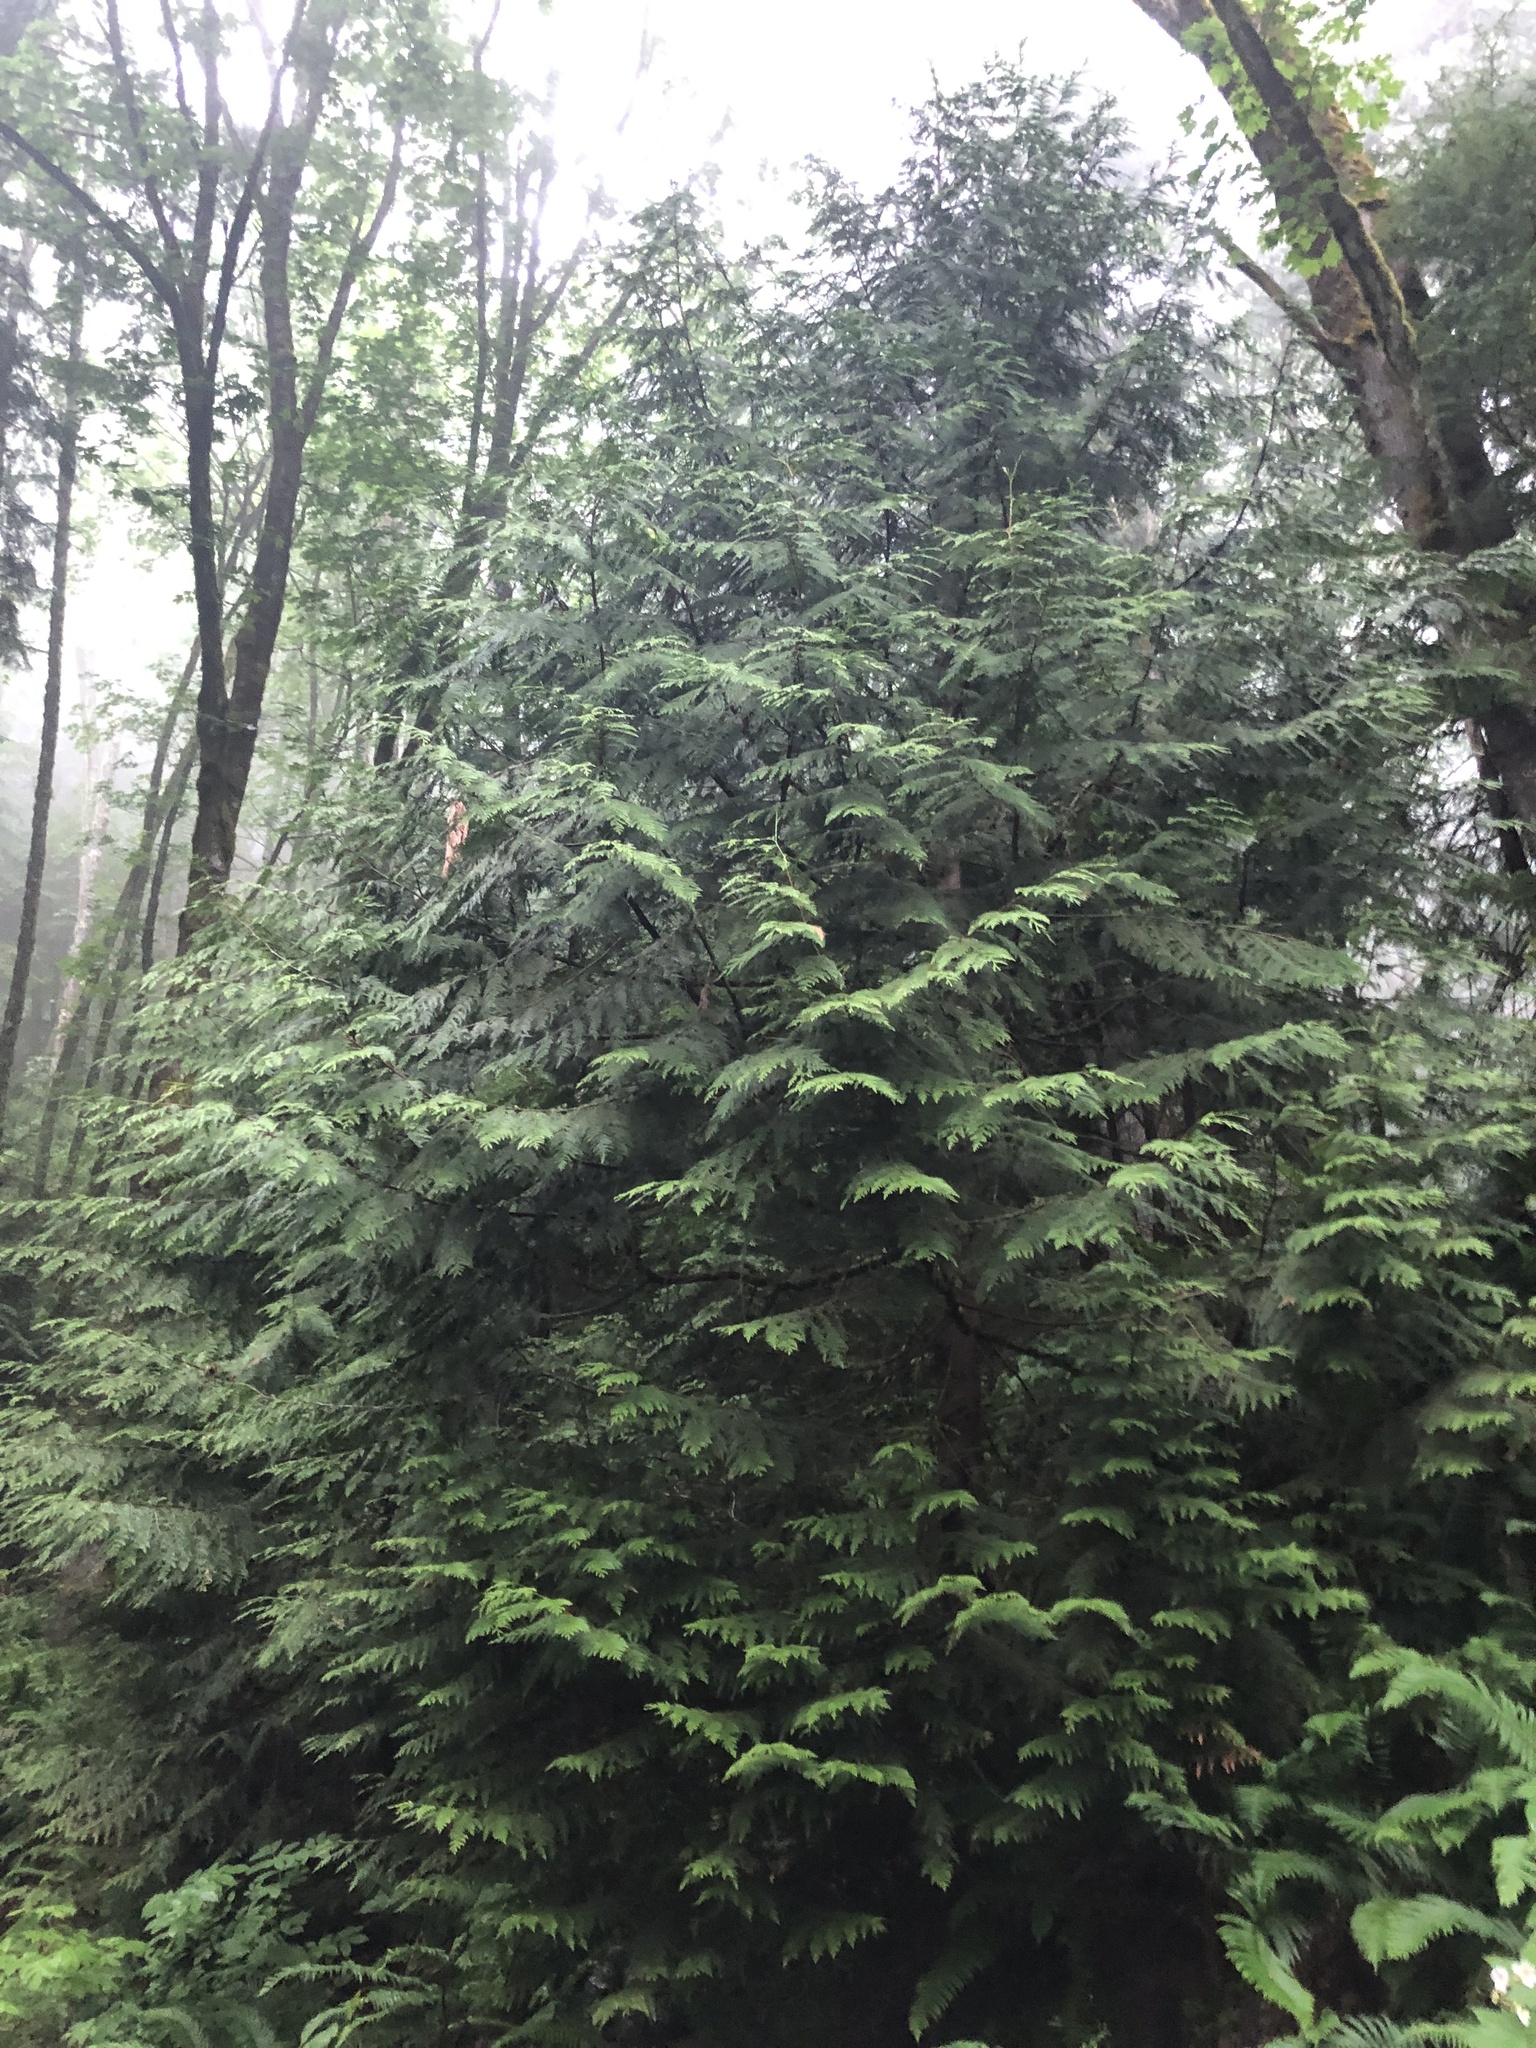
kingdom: Plantae
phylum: Tracheophyta
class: Pinopsida
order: Pinales
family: Cupressaceae
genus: Thuja
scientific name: Thuja plicata
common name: Western red-cedar
